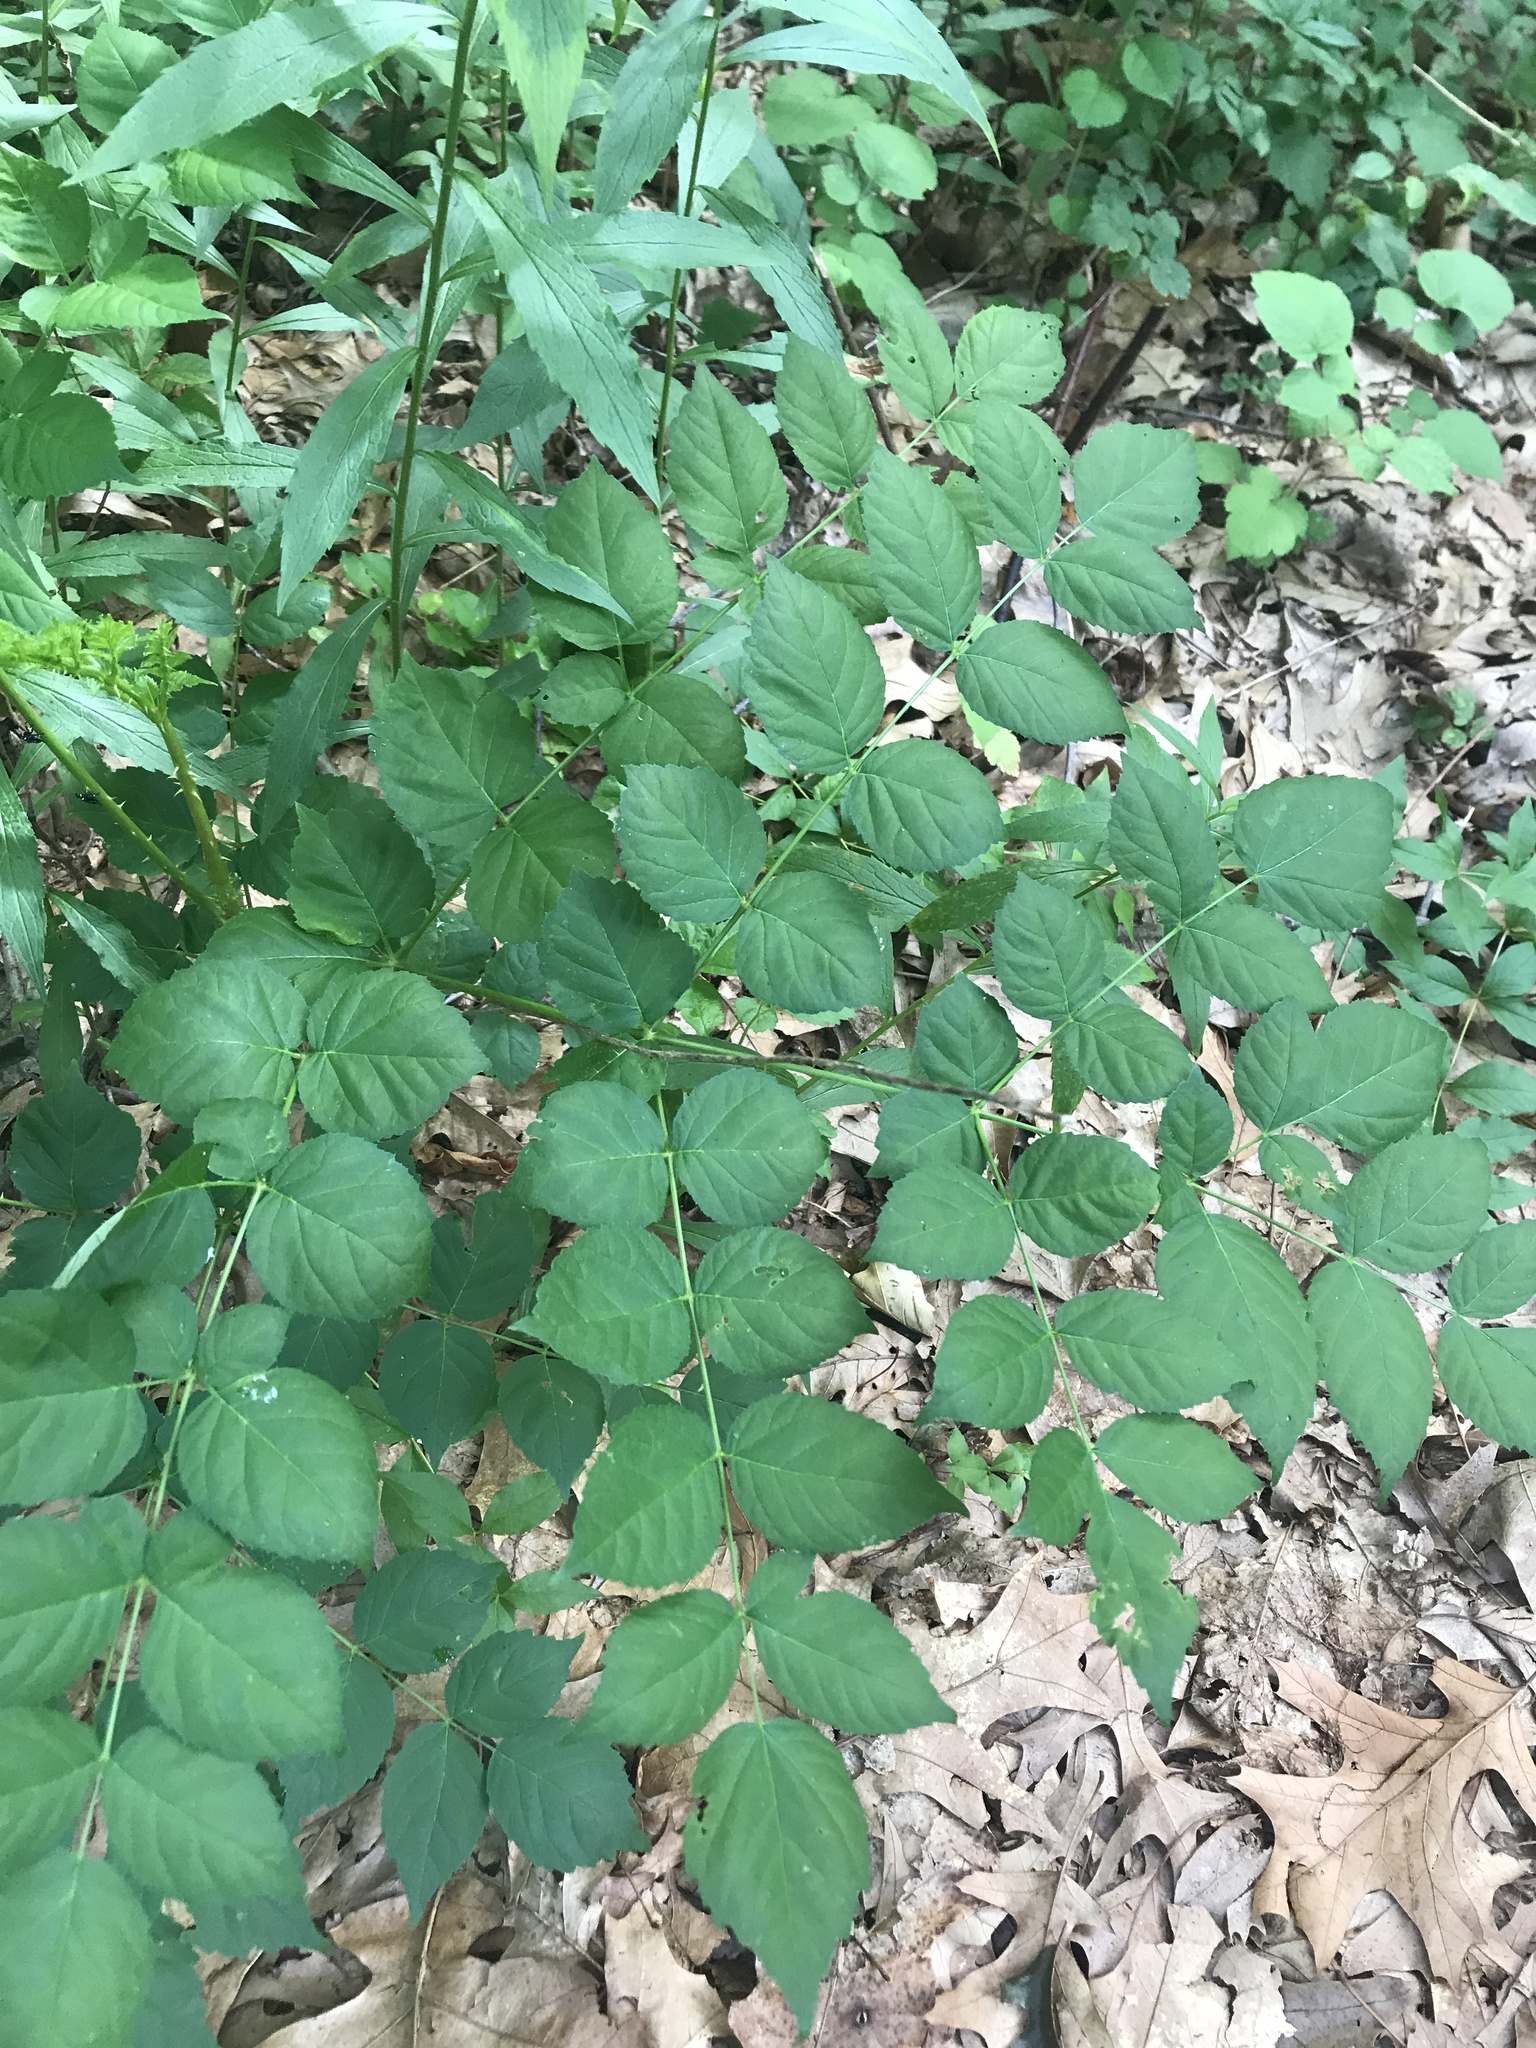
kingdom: Plantae
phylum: Tracheophyta
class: Magnoliopsida
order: Apiales
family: Araliaceae
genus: Aralia
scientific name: Aralia elata
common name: Japanese angelica-tree
